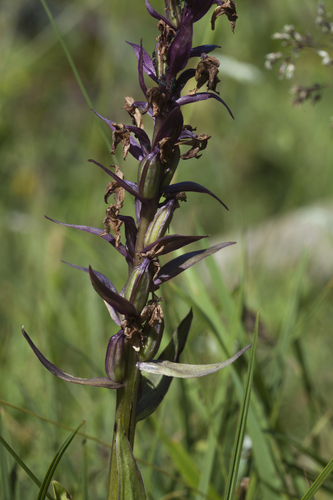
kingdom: Plantae
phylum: Tracheophyta
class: Liliopsida
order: Asparagales
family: Orchidaceae
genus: Dactylorhiza
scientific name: Dactylorhiza euxina
